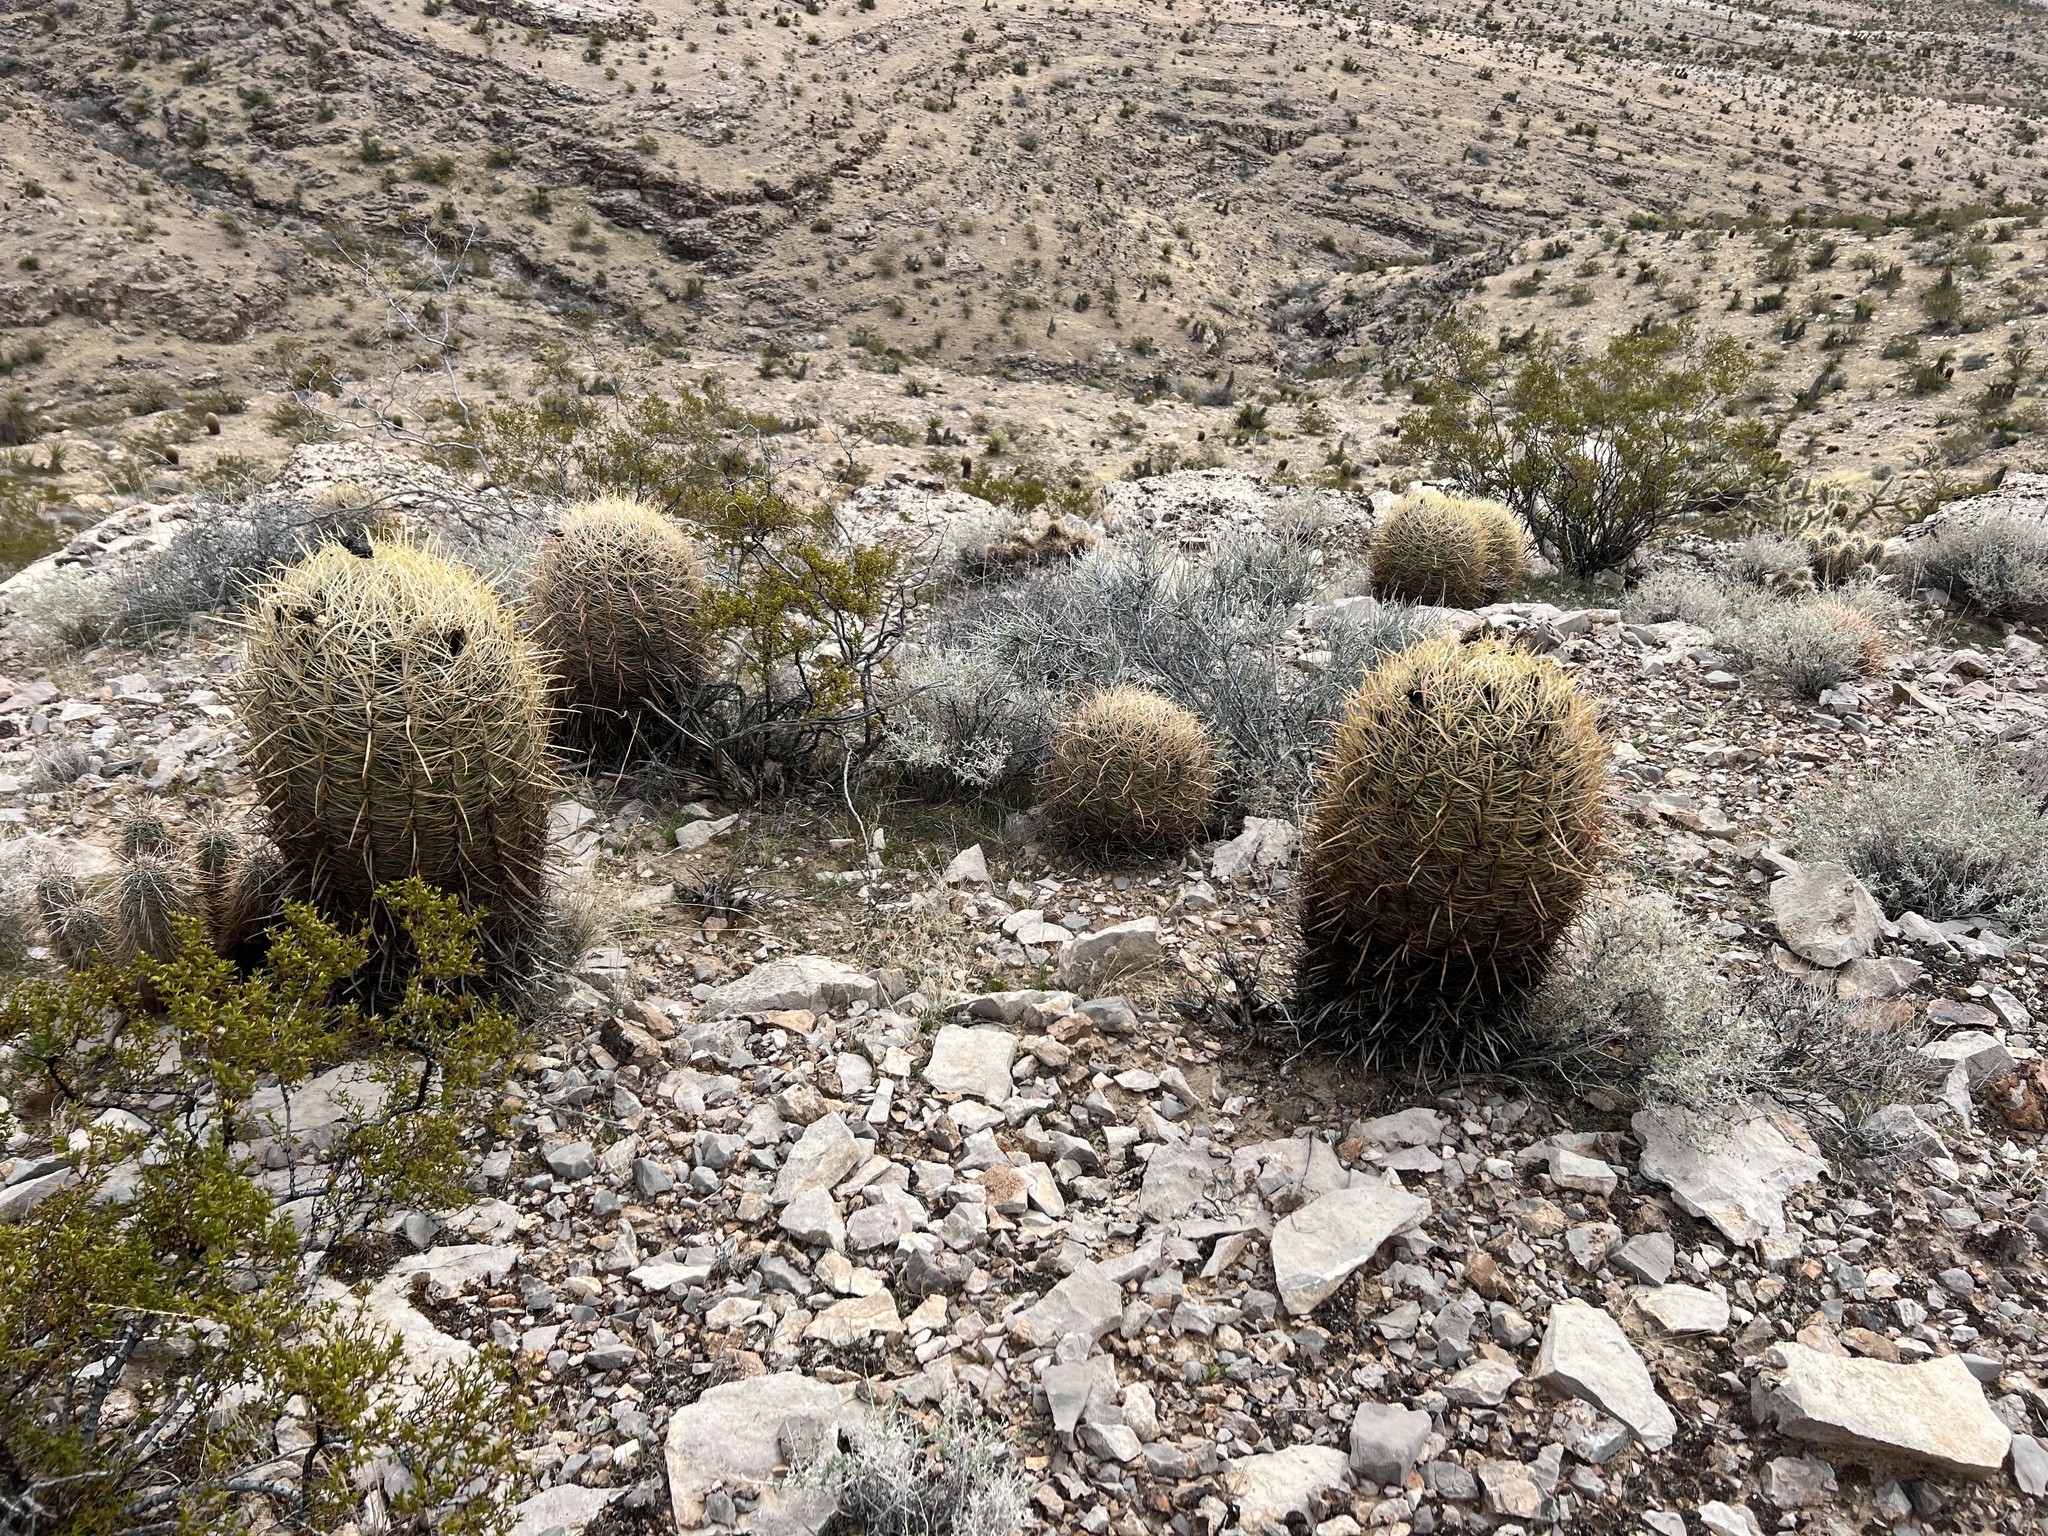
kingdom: Plantae
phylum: Tracheophyta
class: Magnoliopsida
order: Caryophyllales
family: Cactaceae
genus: Ferocactus
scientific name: Ferocactus cylindraceus
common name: California barrel cactus
